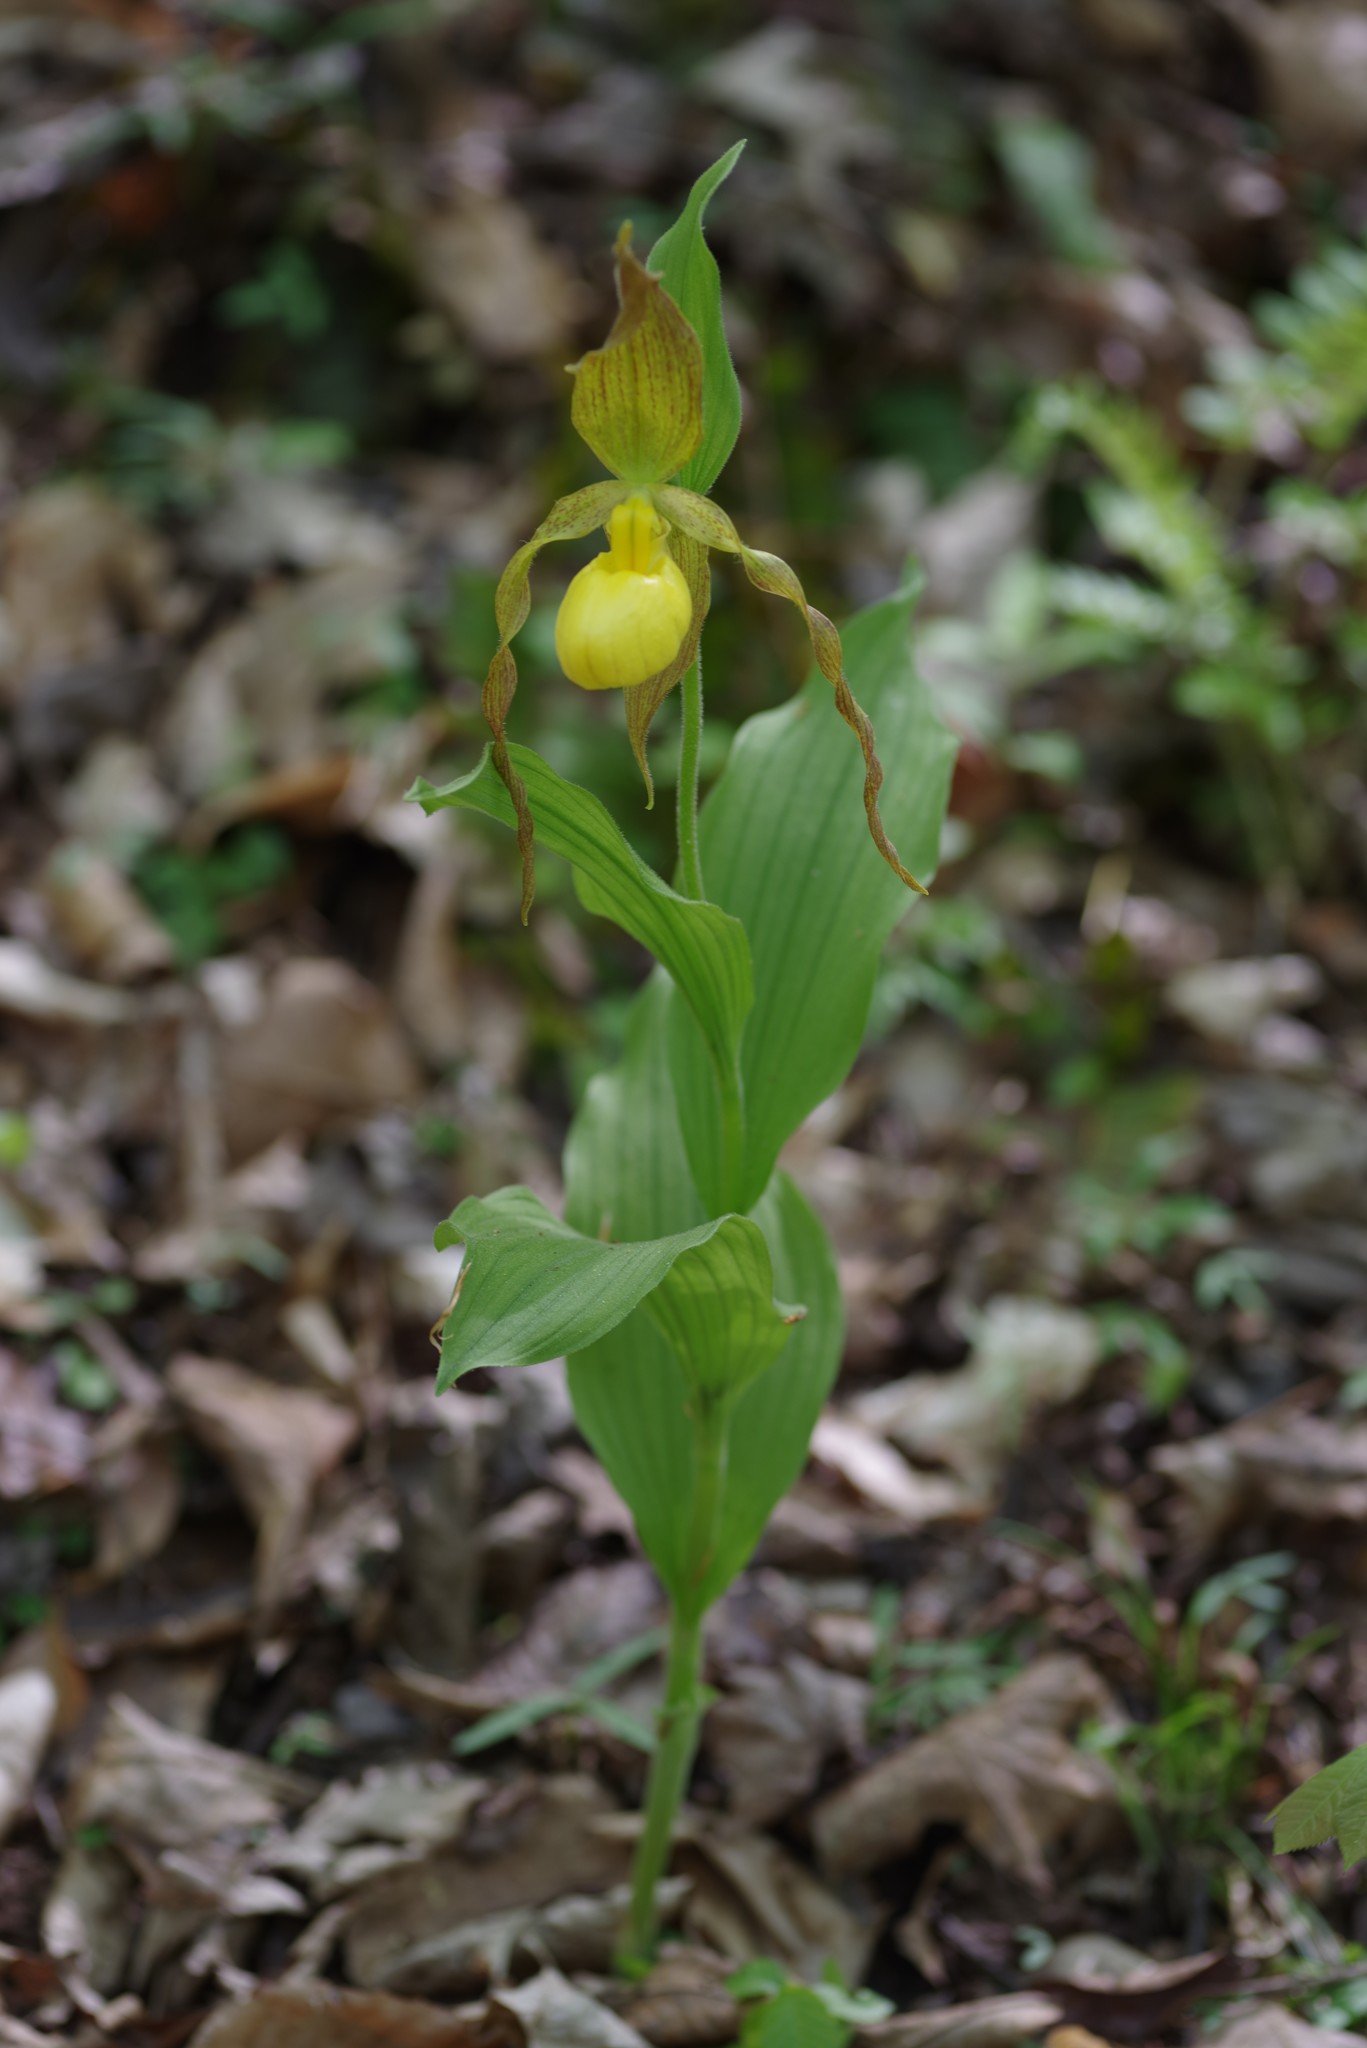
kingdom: Plantae
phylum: Tracheophyta
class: Liliopsida
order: Asparagales
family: Orchidaceae
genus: Cypripedium
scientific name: Cypripedium parviflorum
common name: American yellow lady's-slipper
